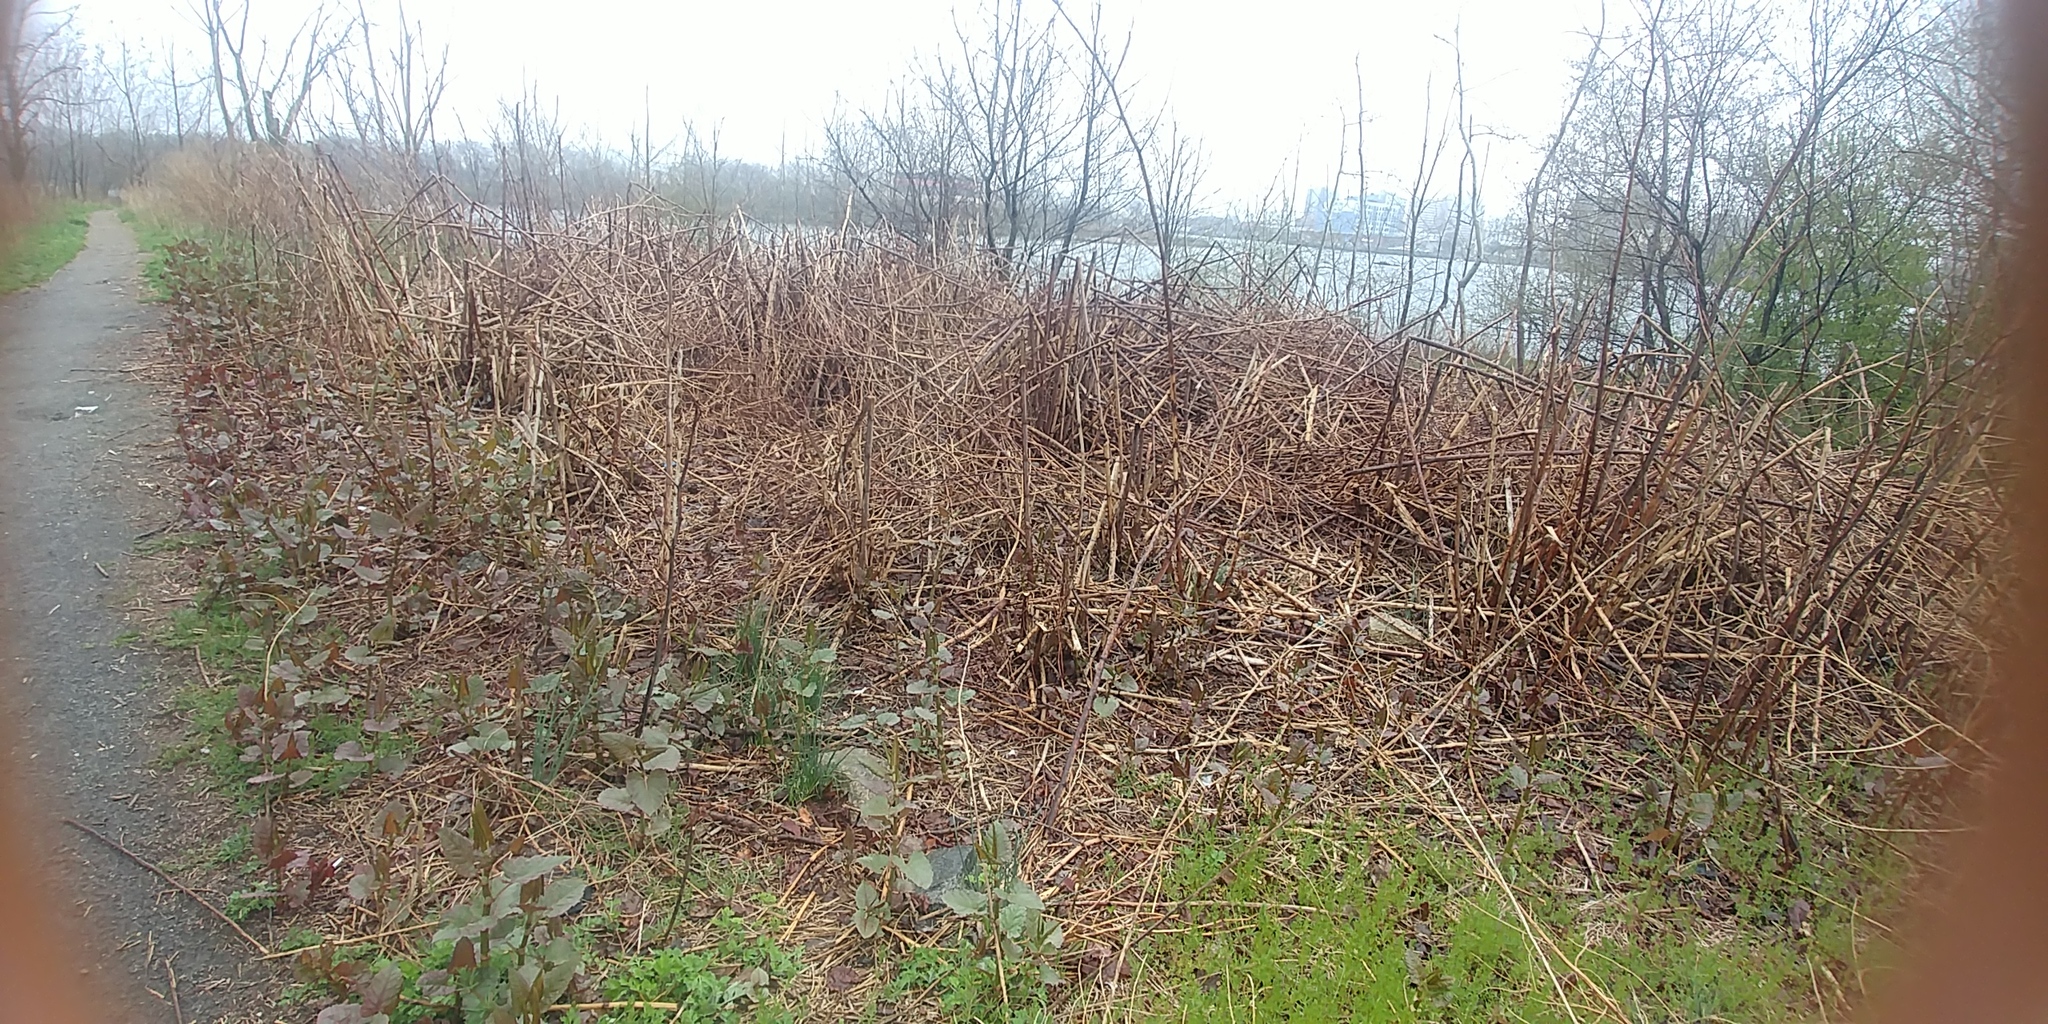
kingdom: Plantae
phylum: Tracheophyta
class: Magnoliopsida
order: Caryophyllales
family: Polygonaceae
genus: Reynoutria
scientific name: Reynoutria japonica
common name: Japanese knotweed
